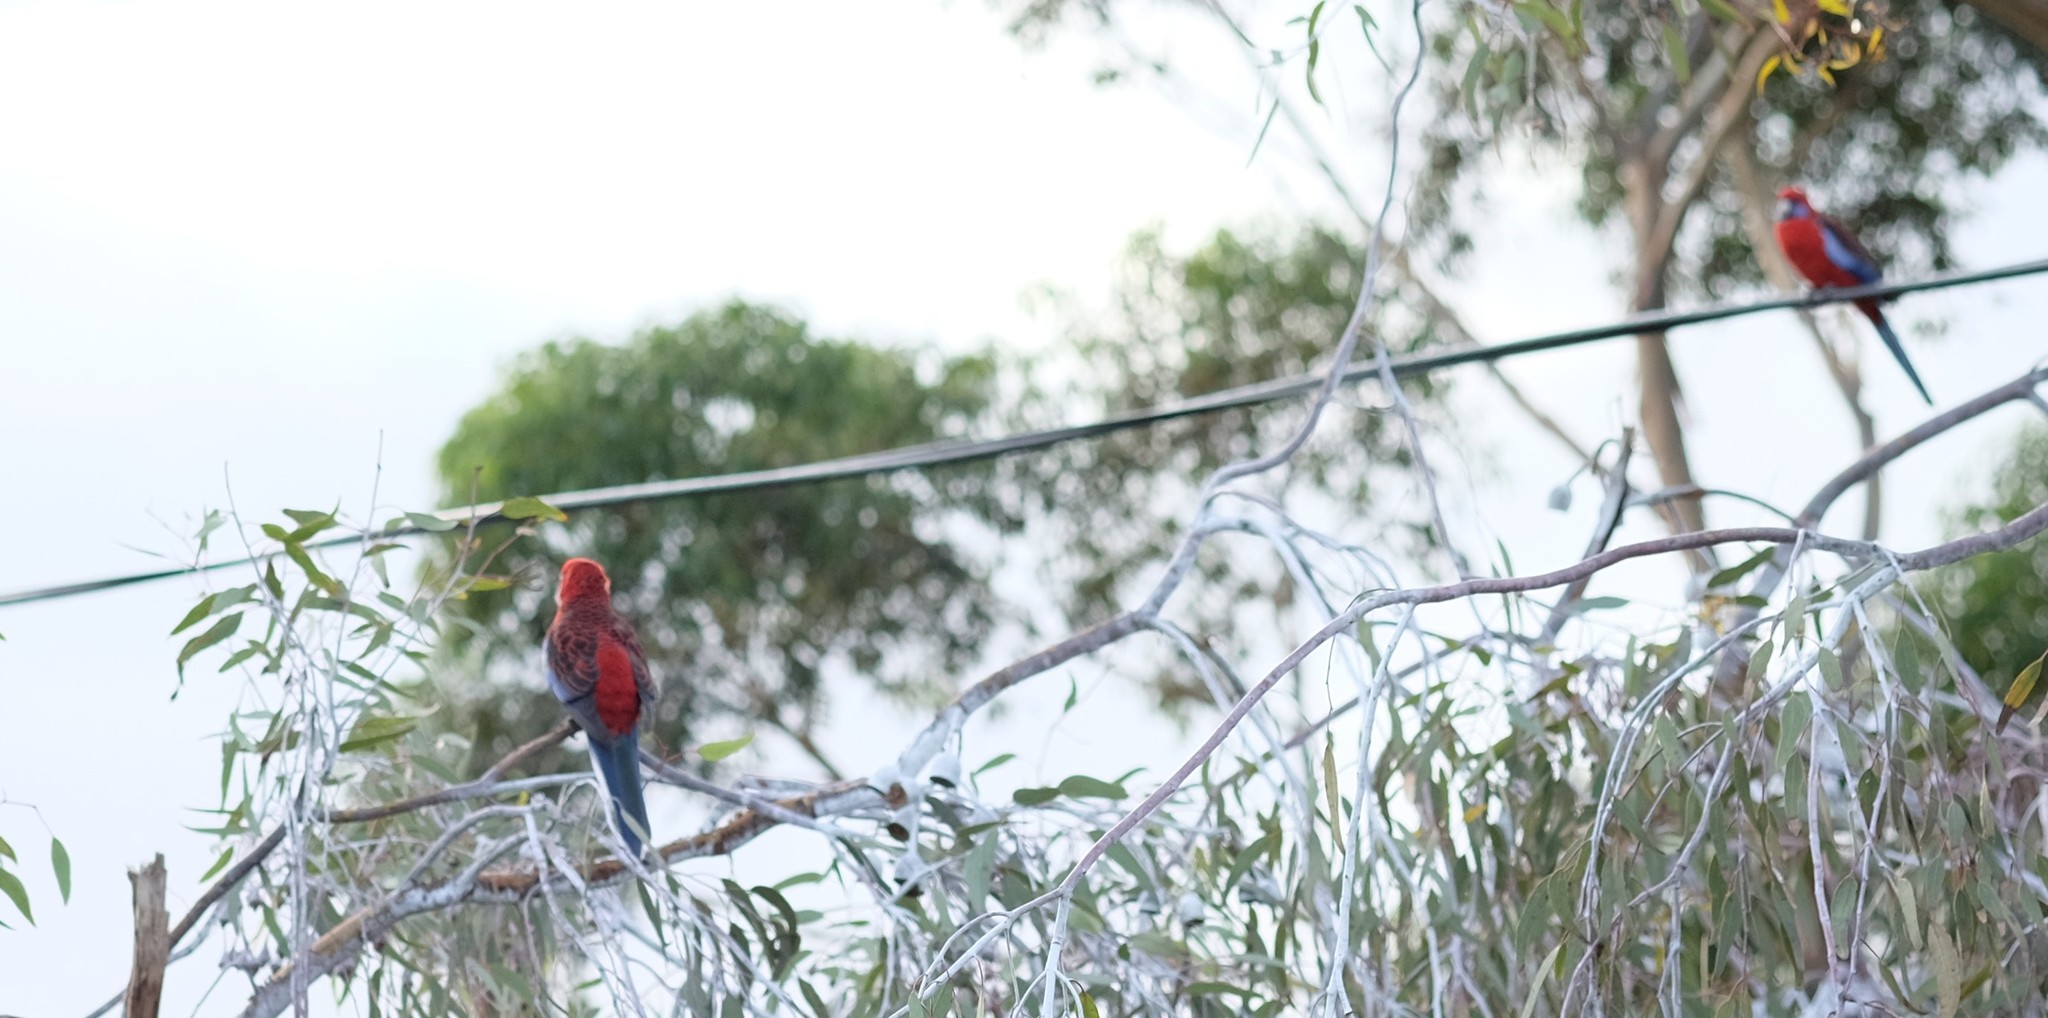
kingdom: Animalia
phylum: Chordata
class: Aves
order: Psittaciformes
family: Psittacidae
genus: Platycercus
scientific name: Platycercus elegans
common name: Crimson rosella
